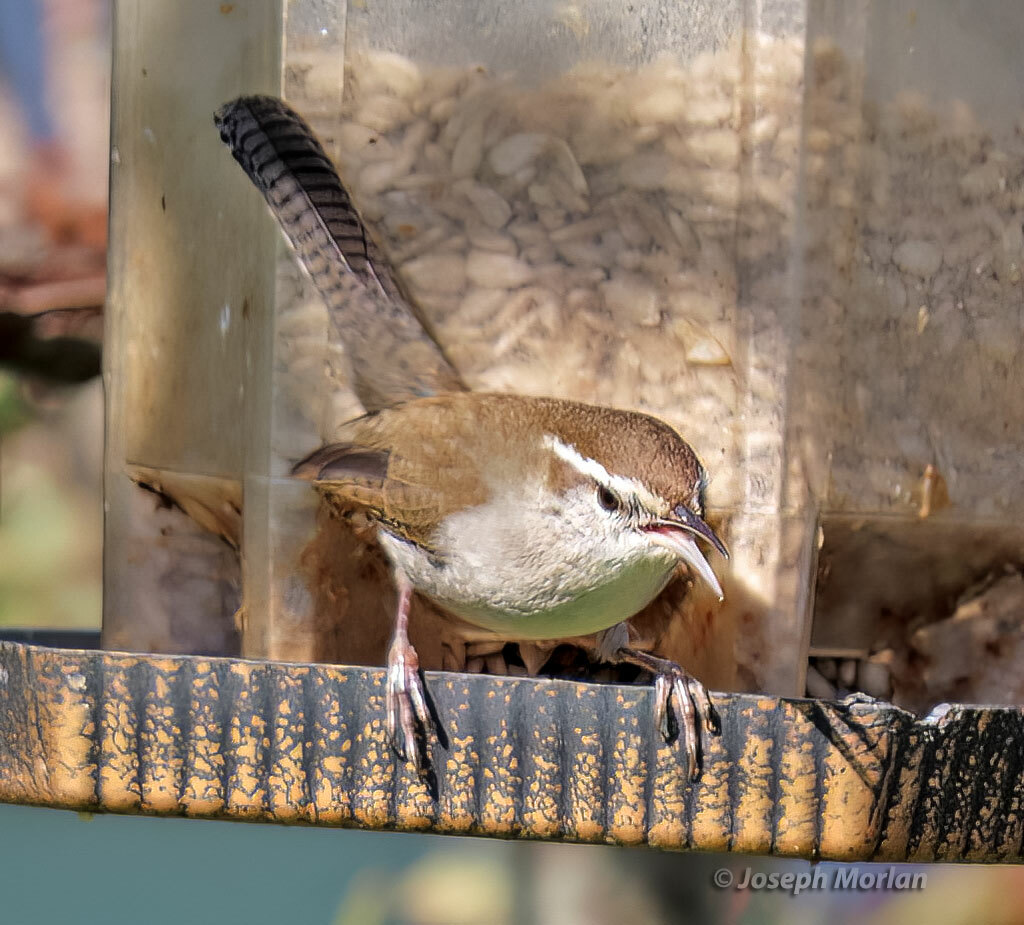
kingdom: Animalia
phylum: Chordata
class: Aves
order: Passeriformes
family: Troglodytidae
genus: Thryomanes
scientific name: Thryomanes bewickii
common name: Bewick's wren
